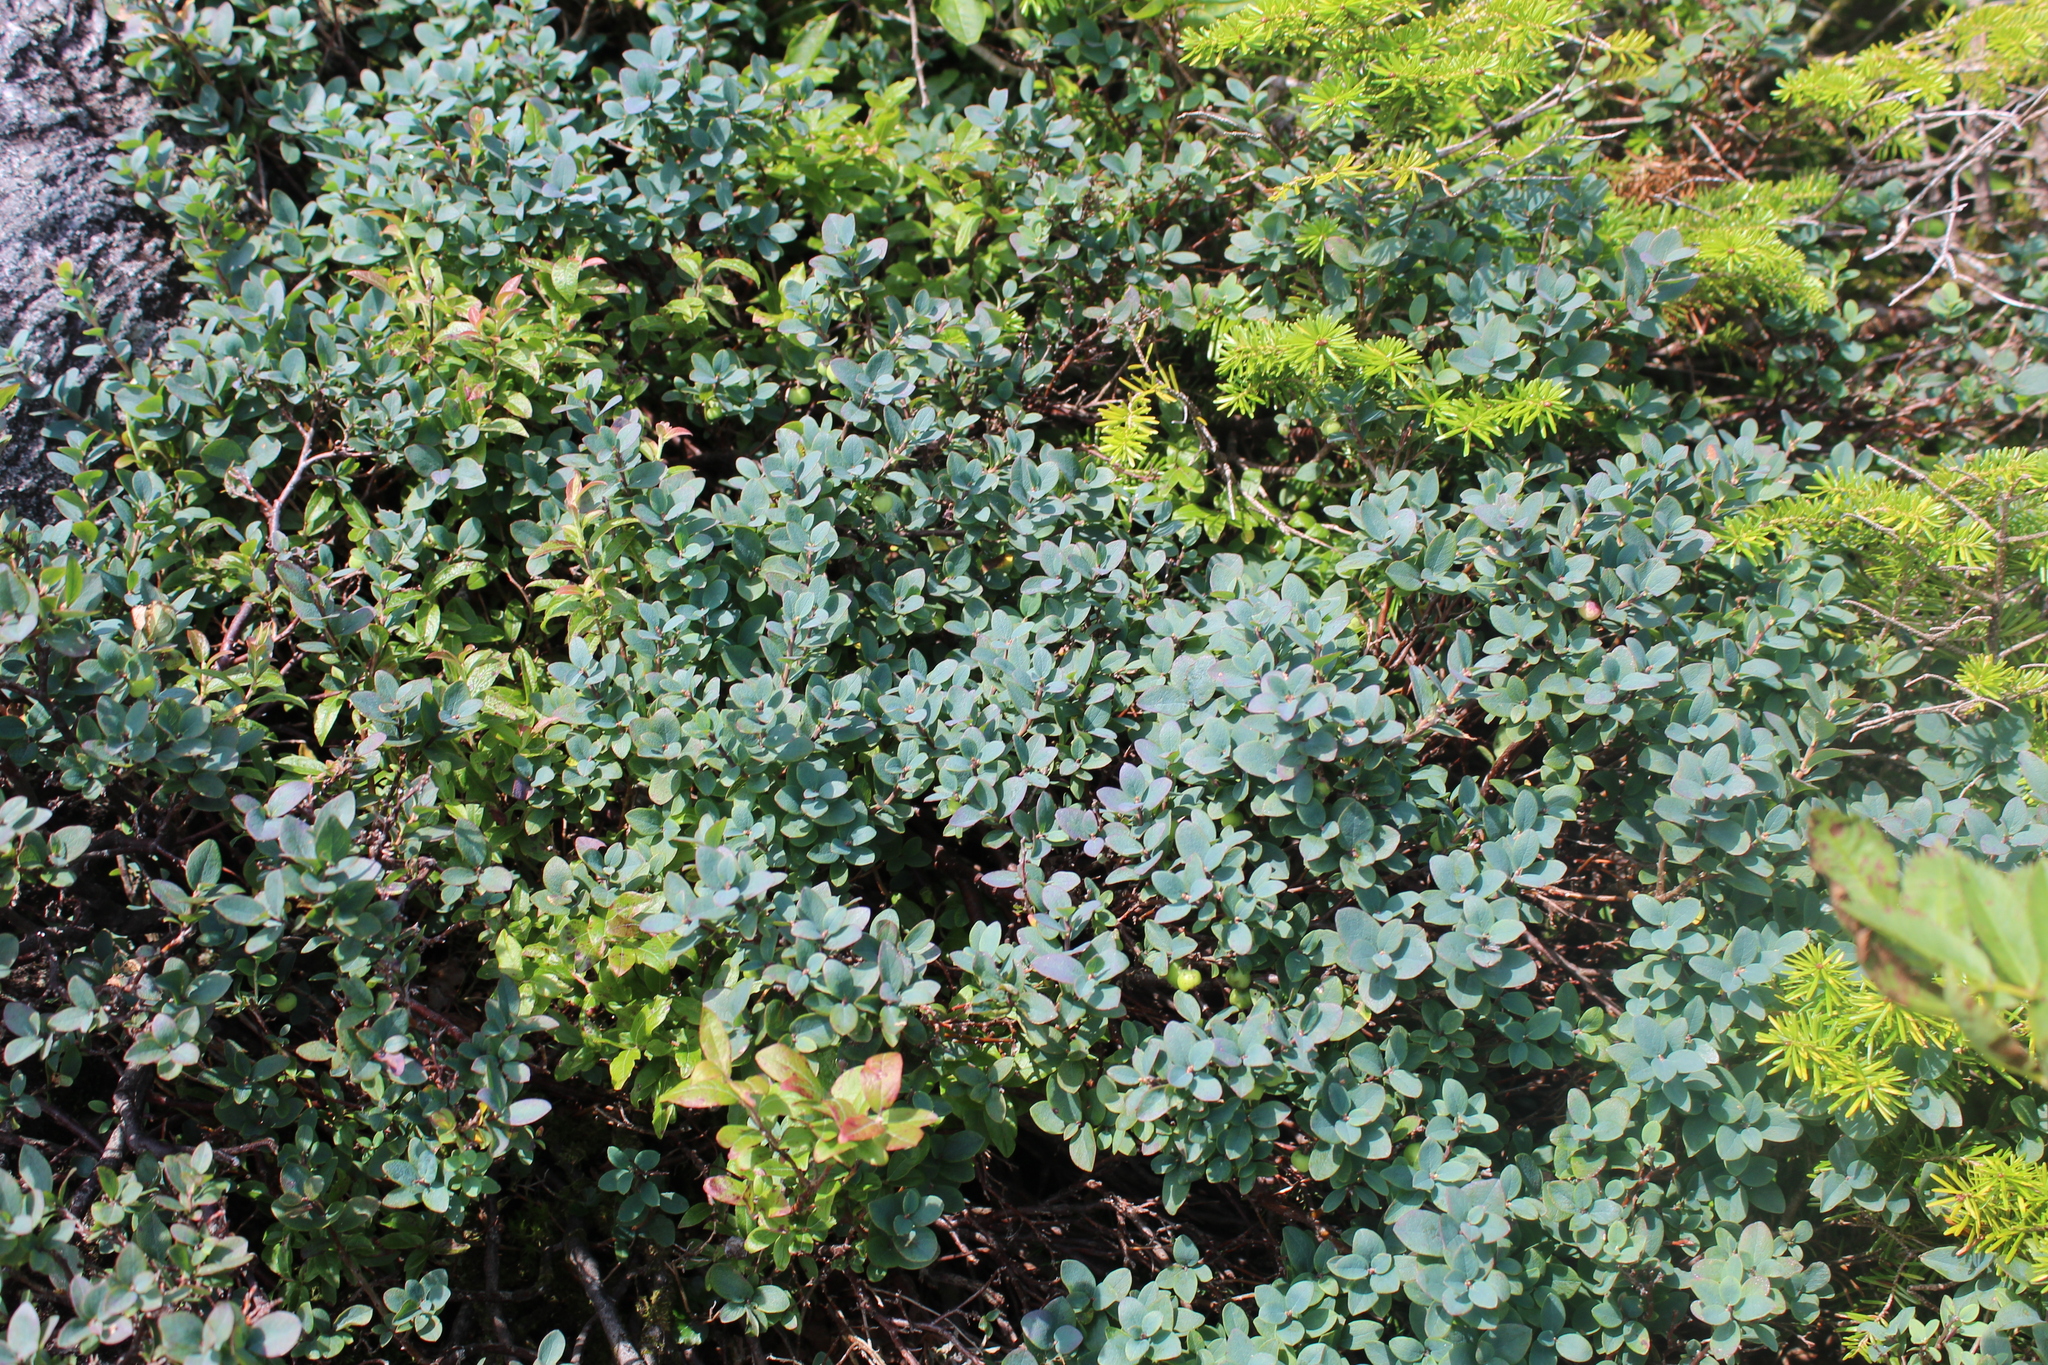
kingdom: Plantae
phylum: Tracheophyta
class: Magnoliopsida
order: Ericales
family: Ericaceae
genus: Vaccinium
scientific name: Vaccinium uliginosum
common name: Bog bilberry
